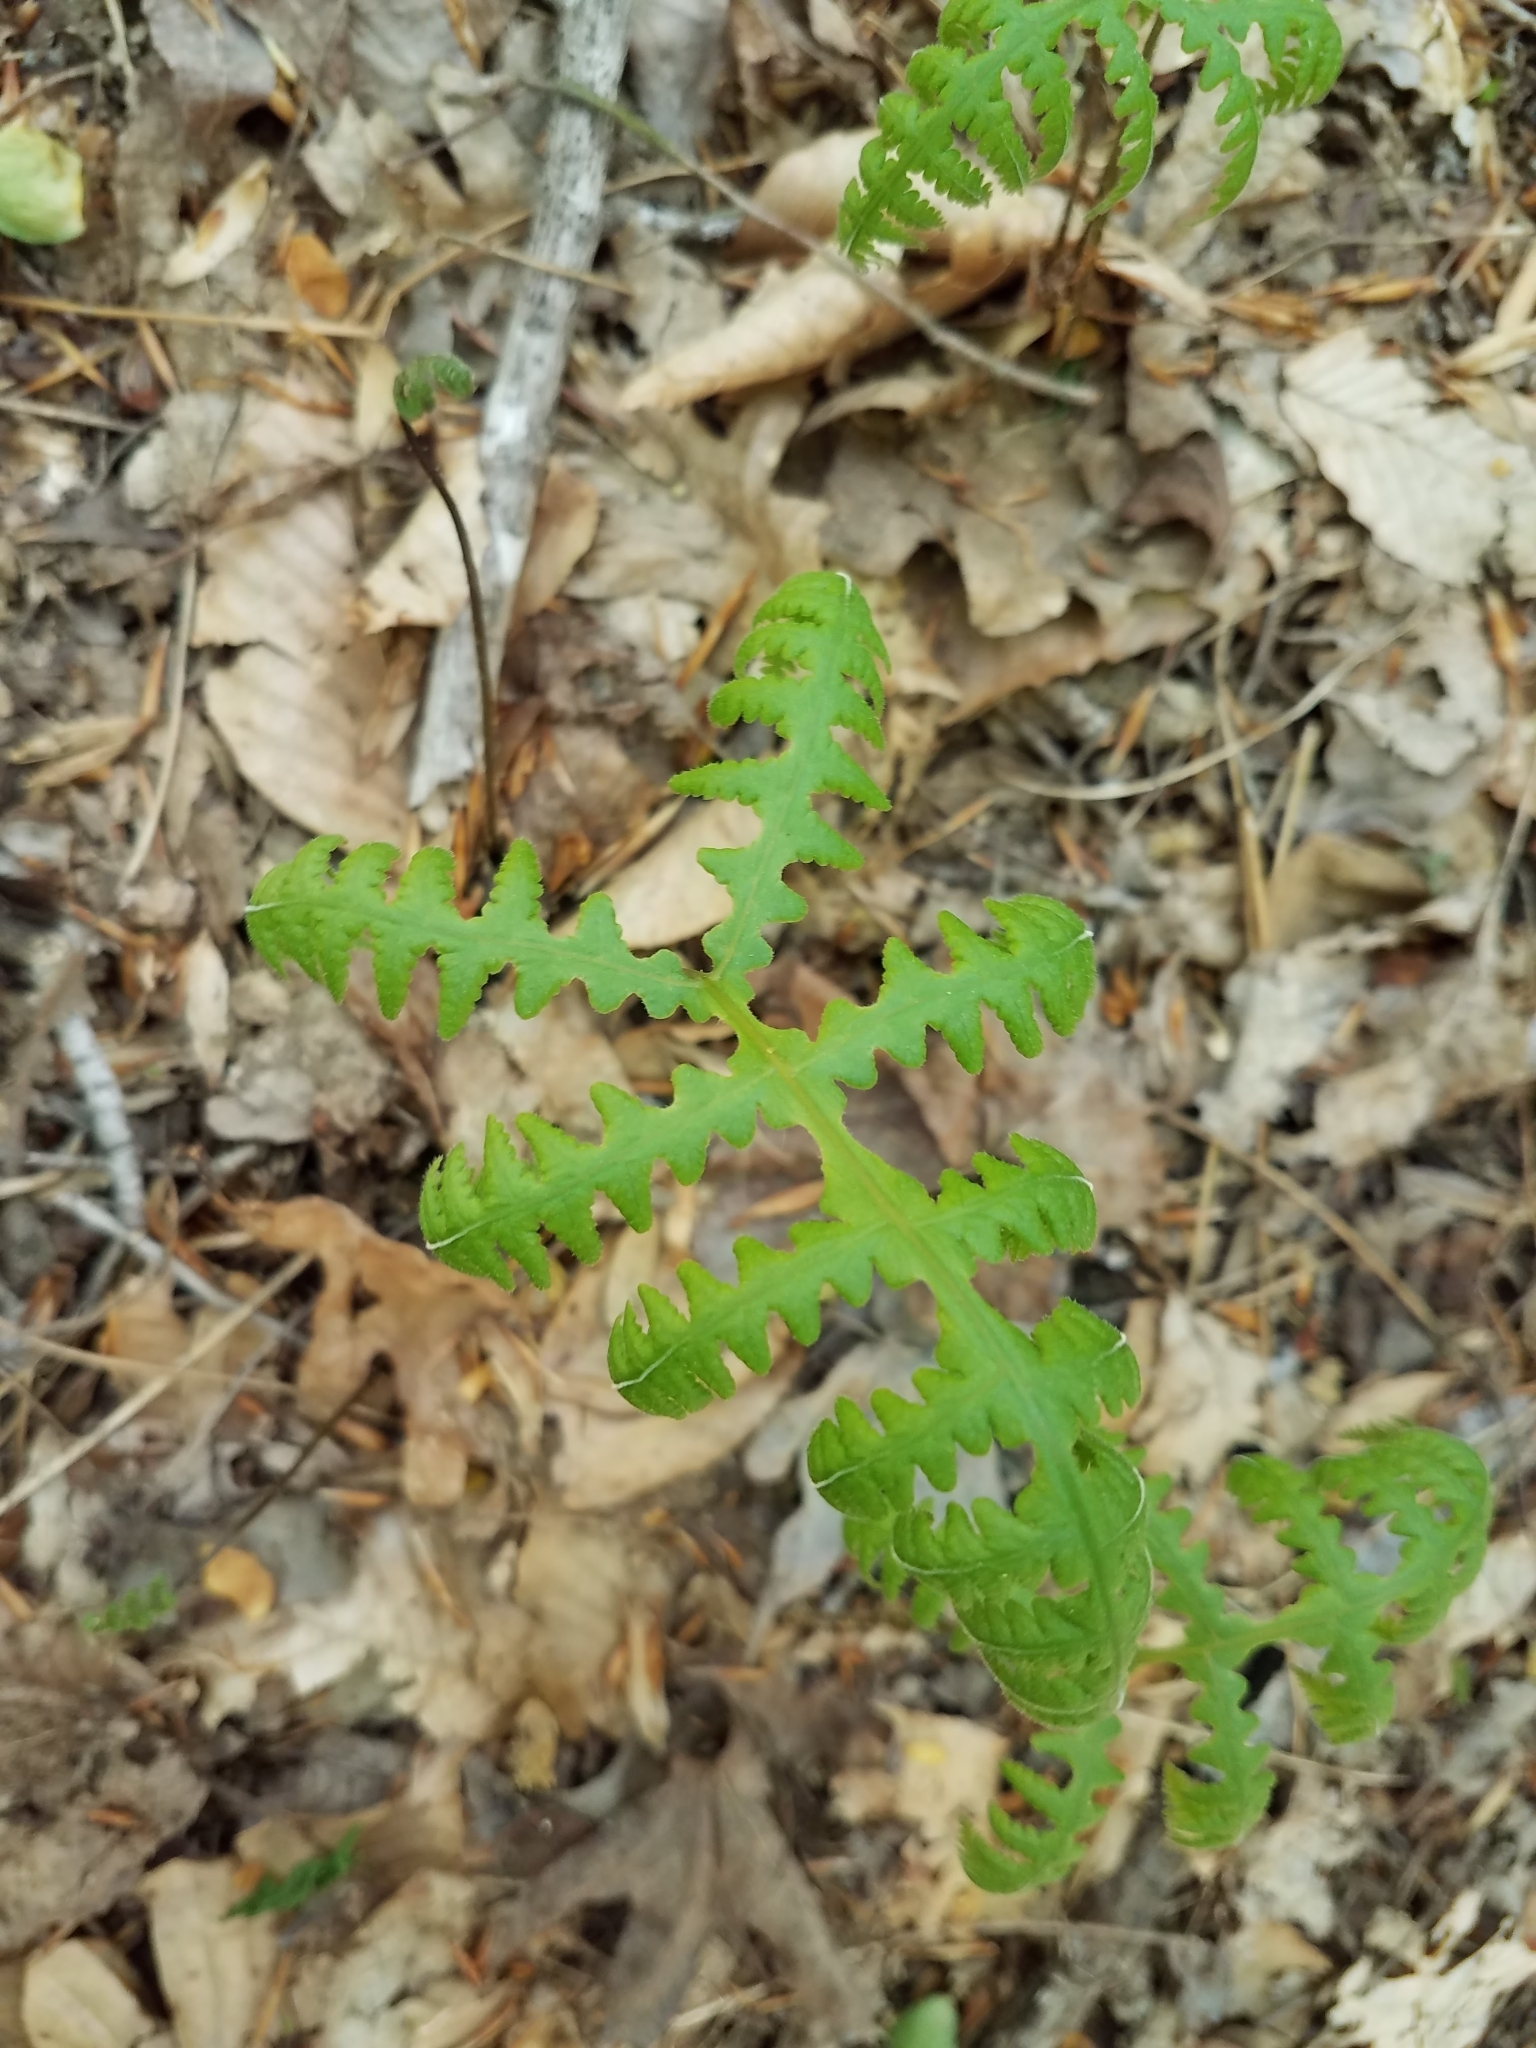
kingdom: Plantae
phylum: Tracheophyta
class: Polypodiopsida
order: Polypodiales
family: Thelypteridaceae
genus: Phegopteris
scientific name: Phegopteris hexagonoptera
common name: Broad beech fern
